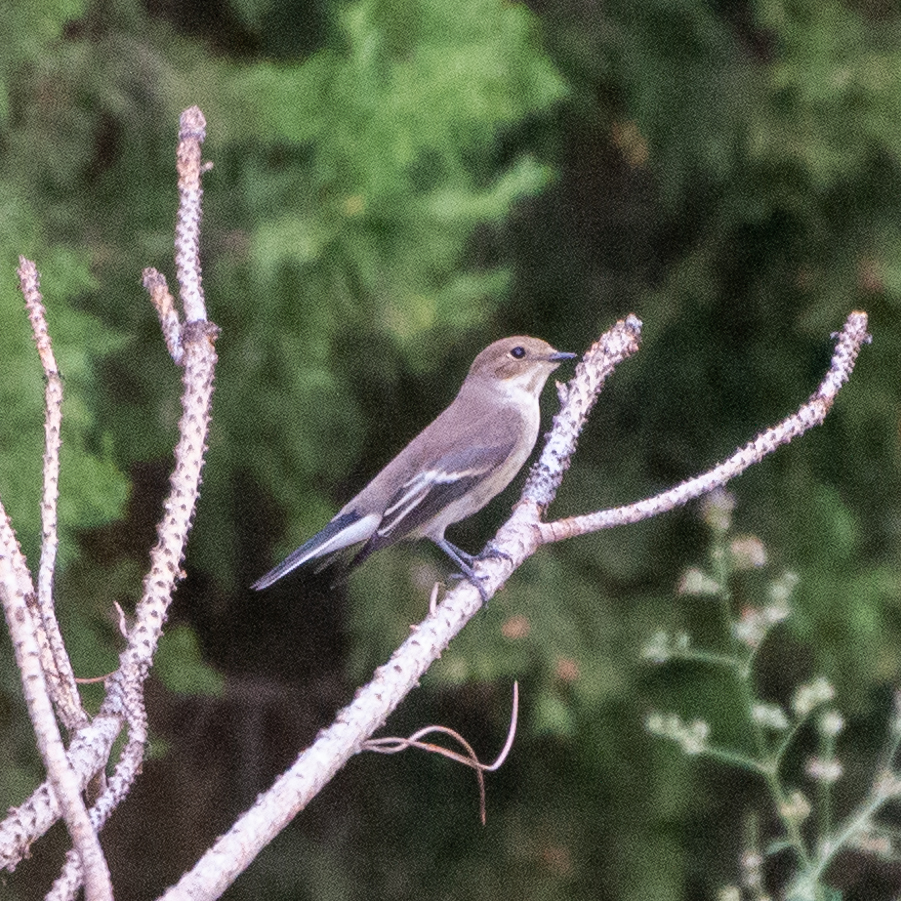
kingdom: Animalia
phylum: Chordata
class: Aves
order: Passeriformes
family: Muscicapidae
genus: Ficedula
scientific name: Ficedula hypoleuca
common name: European pied flycatcher
